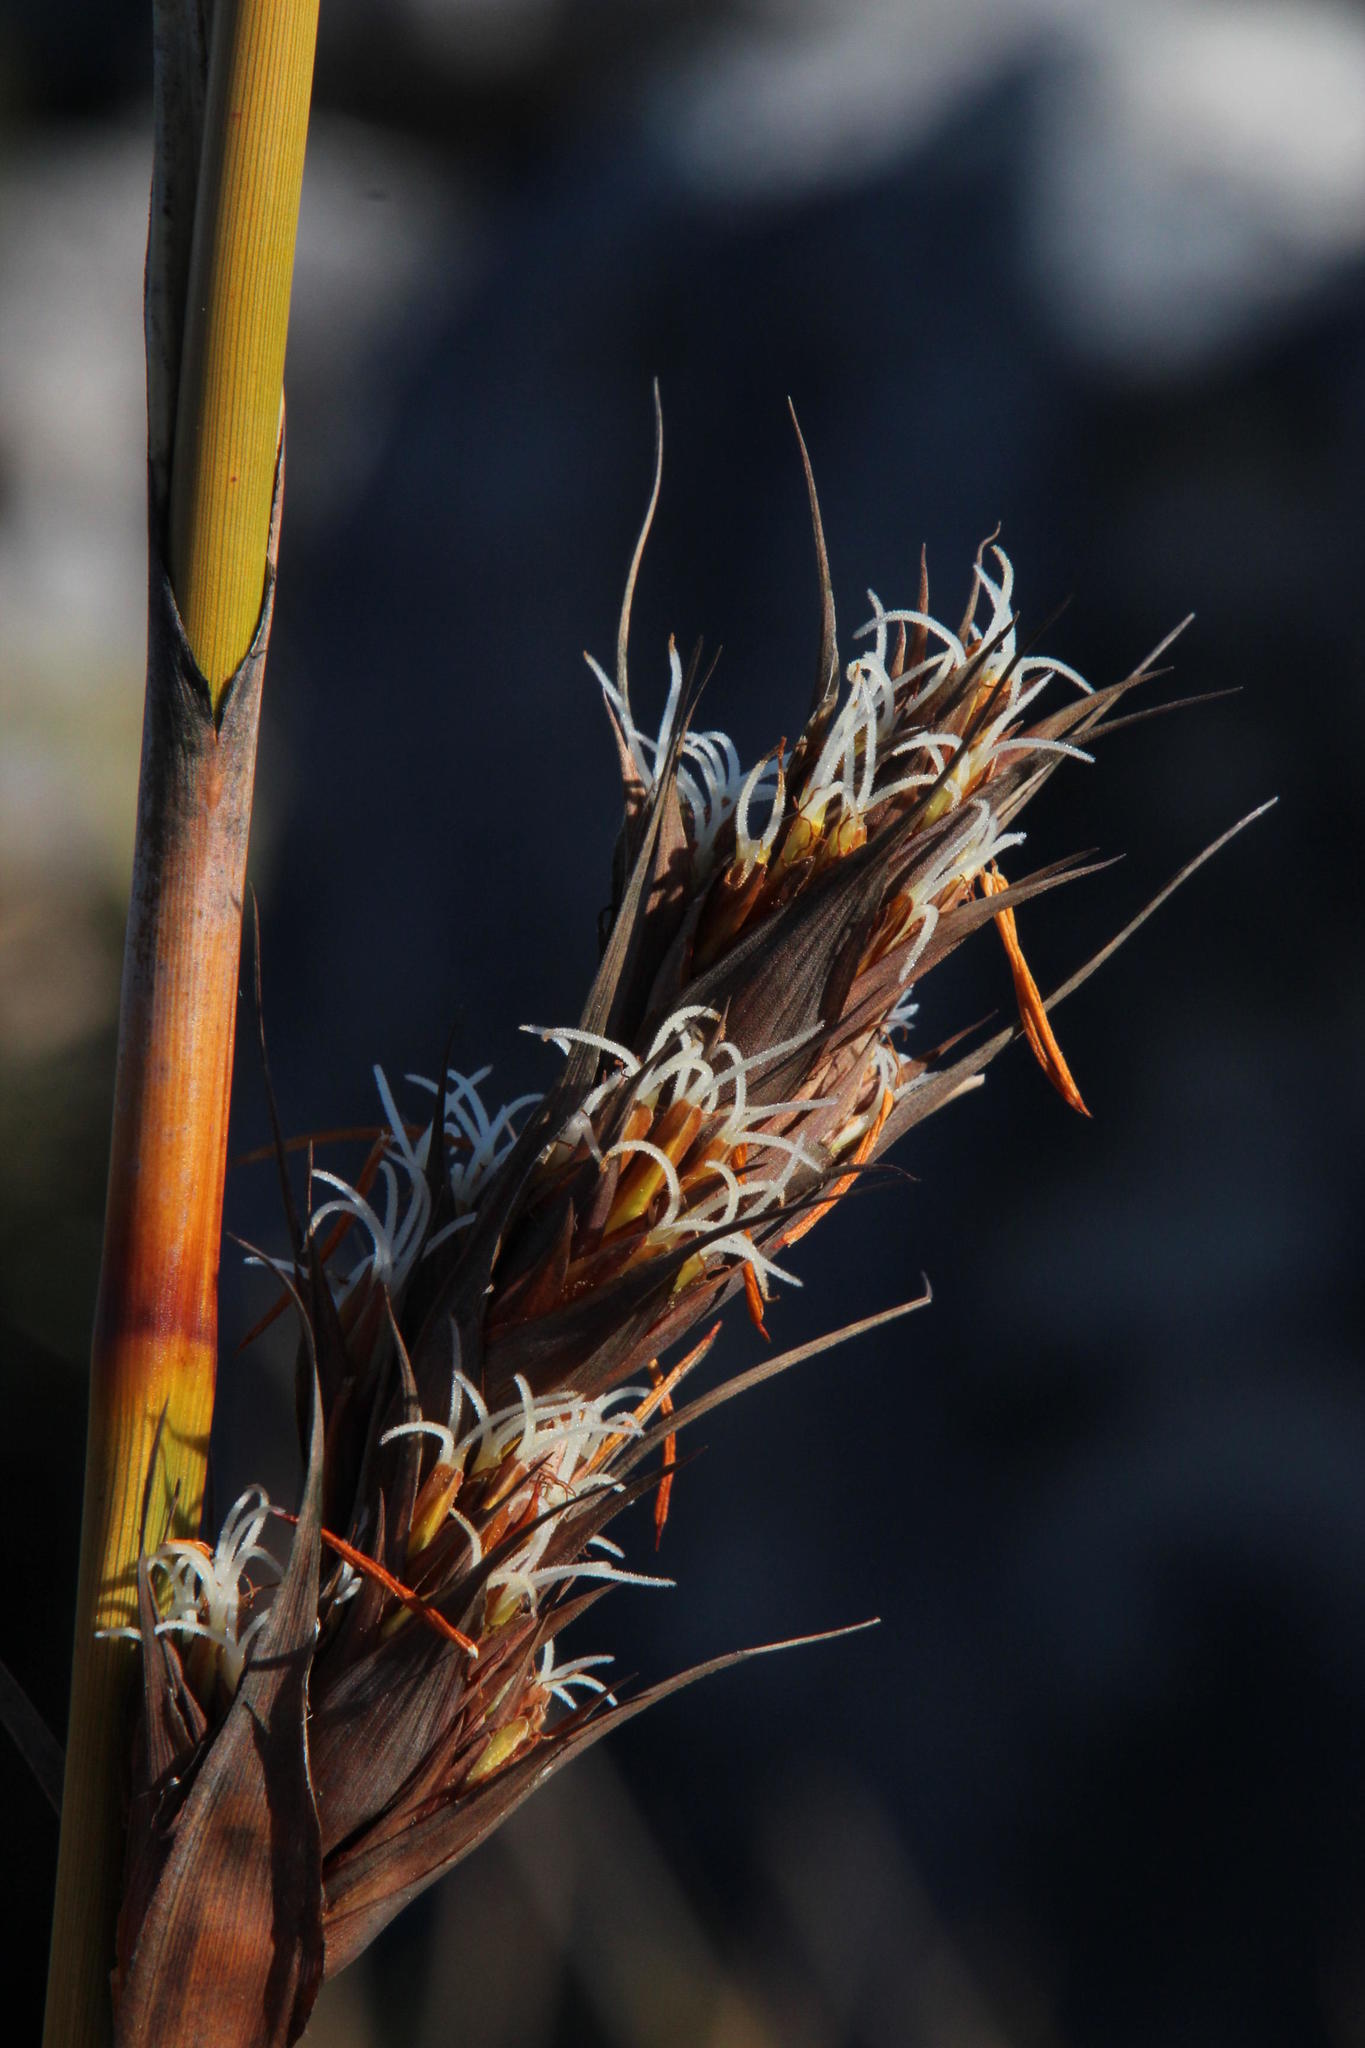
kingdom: Plantae
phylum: Tracheophyta
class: Liliopsida
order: Poales
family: Cyperaceae
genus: Tetraria
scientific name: Tetraria thermalis
